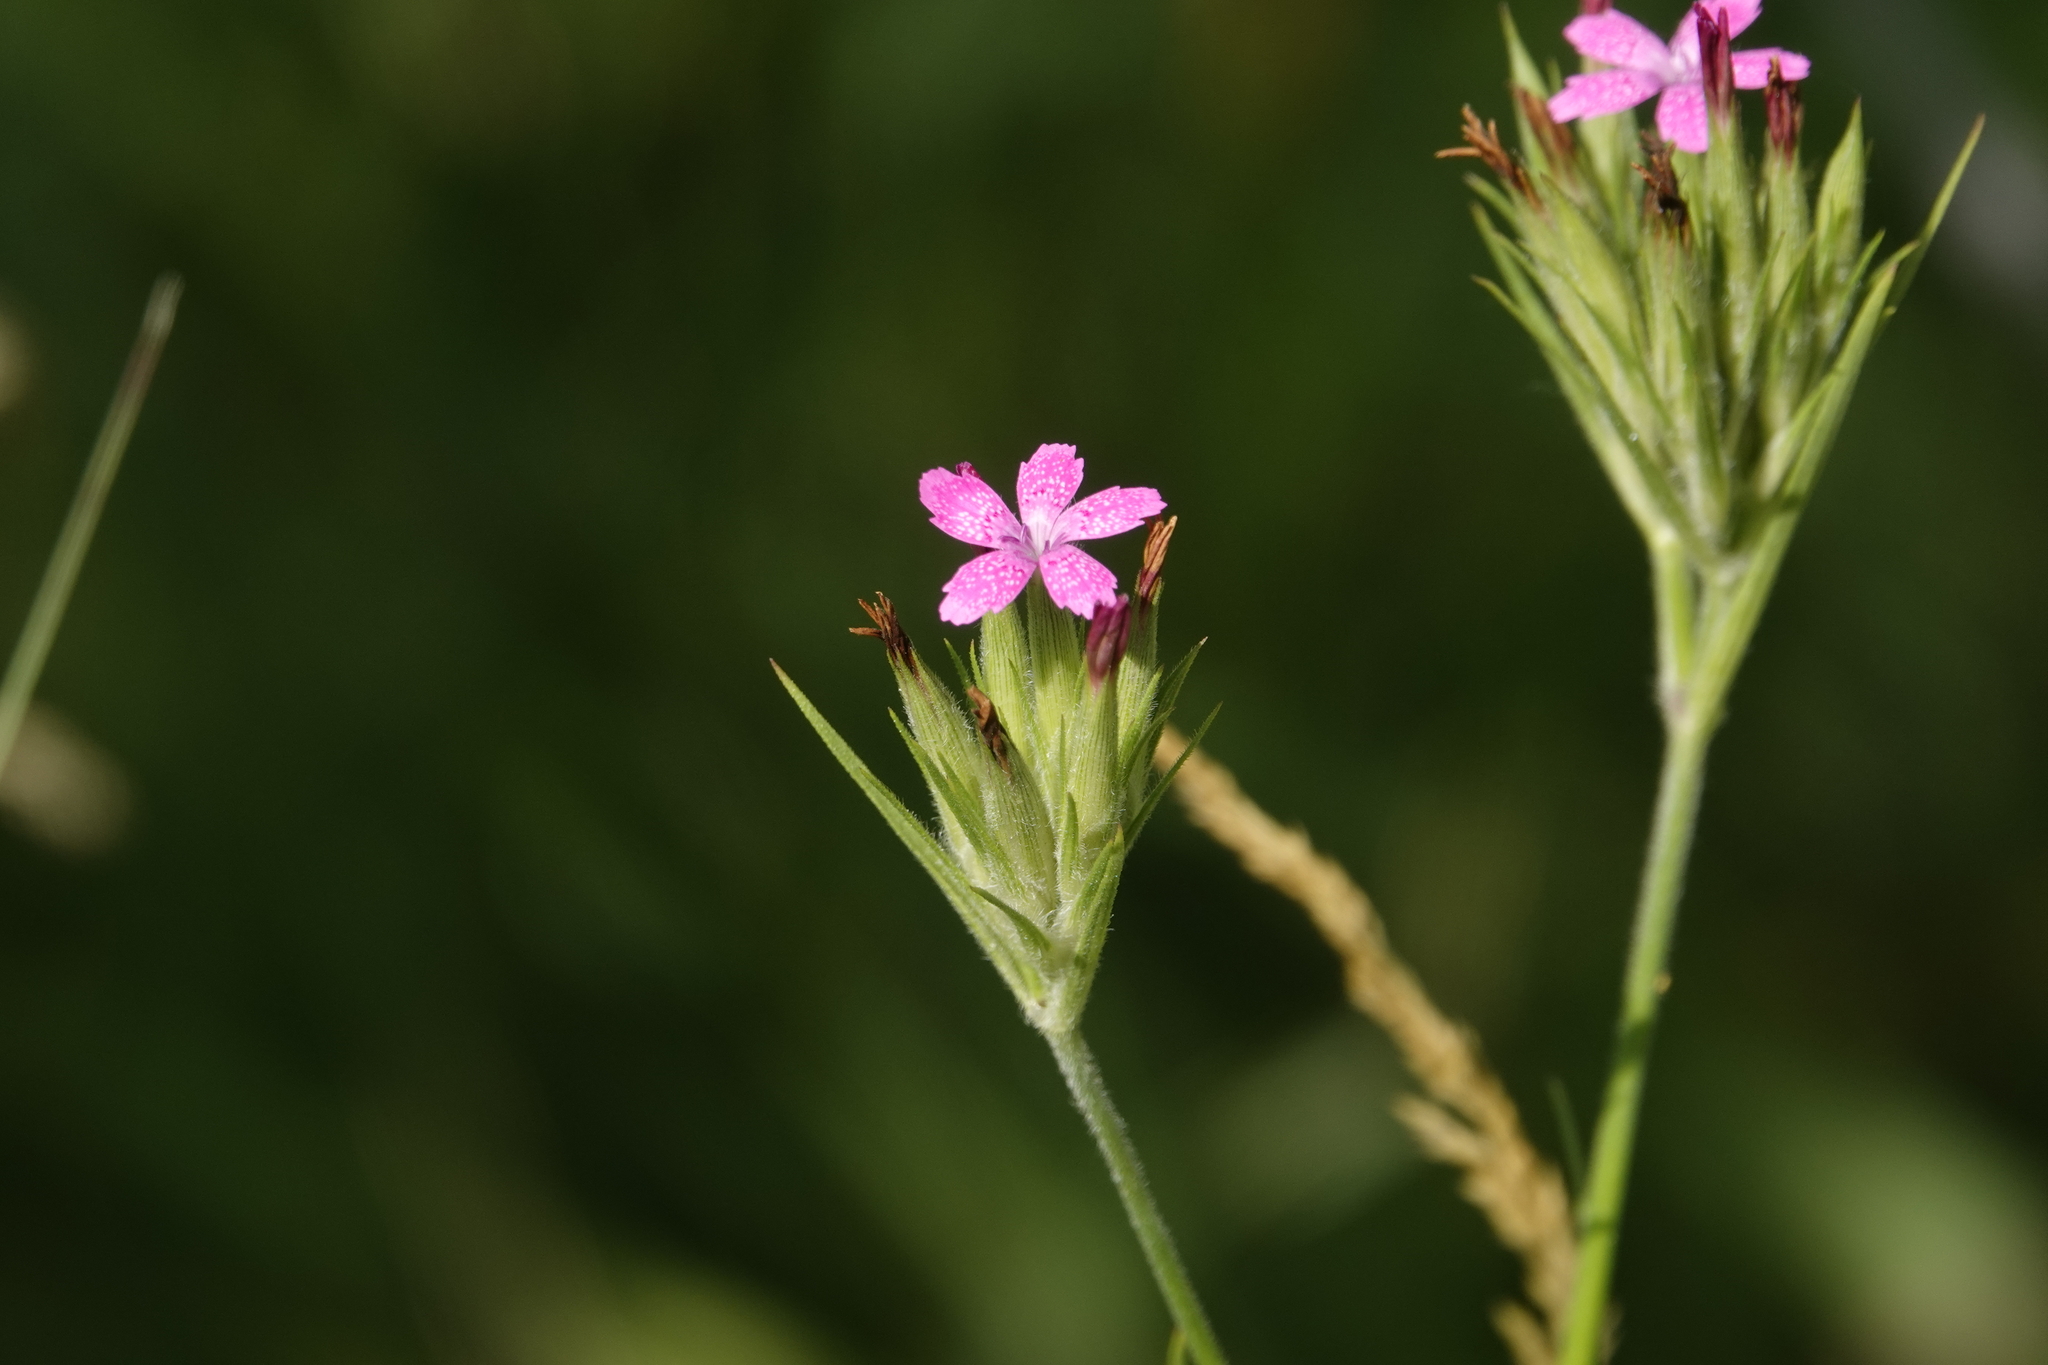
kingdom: Plantae
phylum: Tracheophyta
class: Magnoliopsida
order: Caryophyllales
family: Caryophyllaceae
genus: Dianthus
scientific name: Dianthus armeria
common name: Deptford pink
